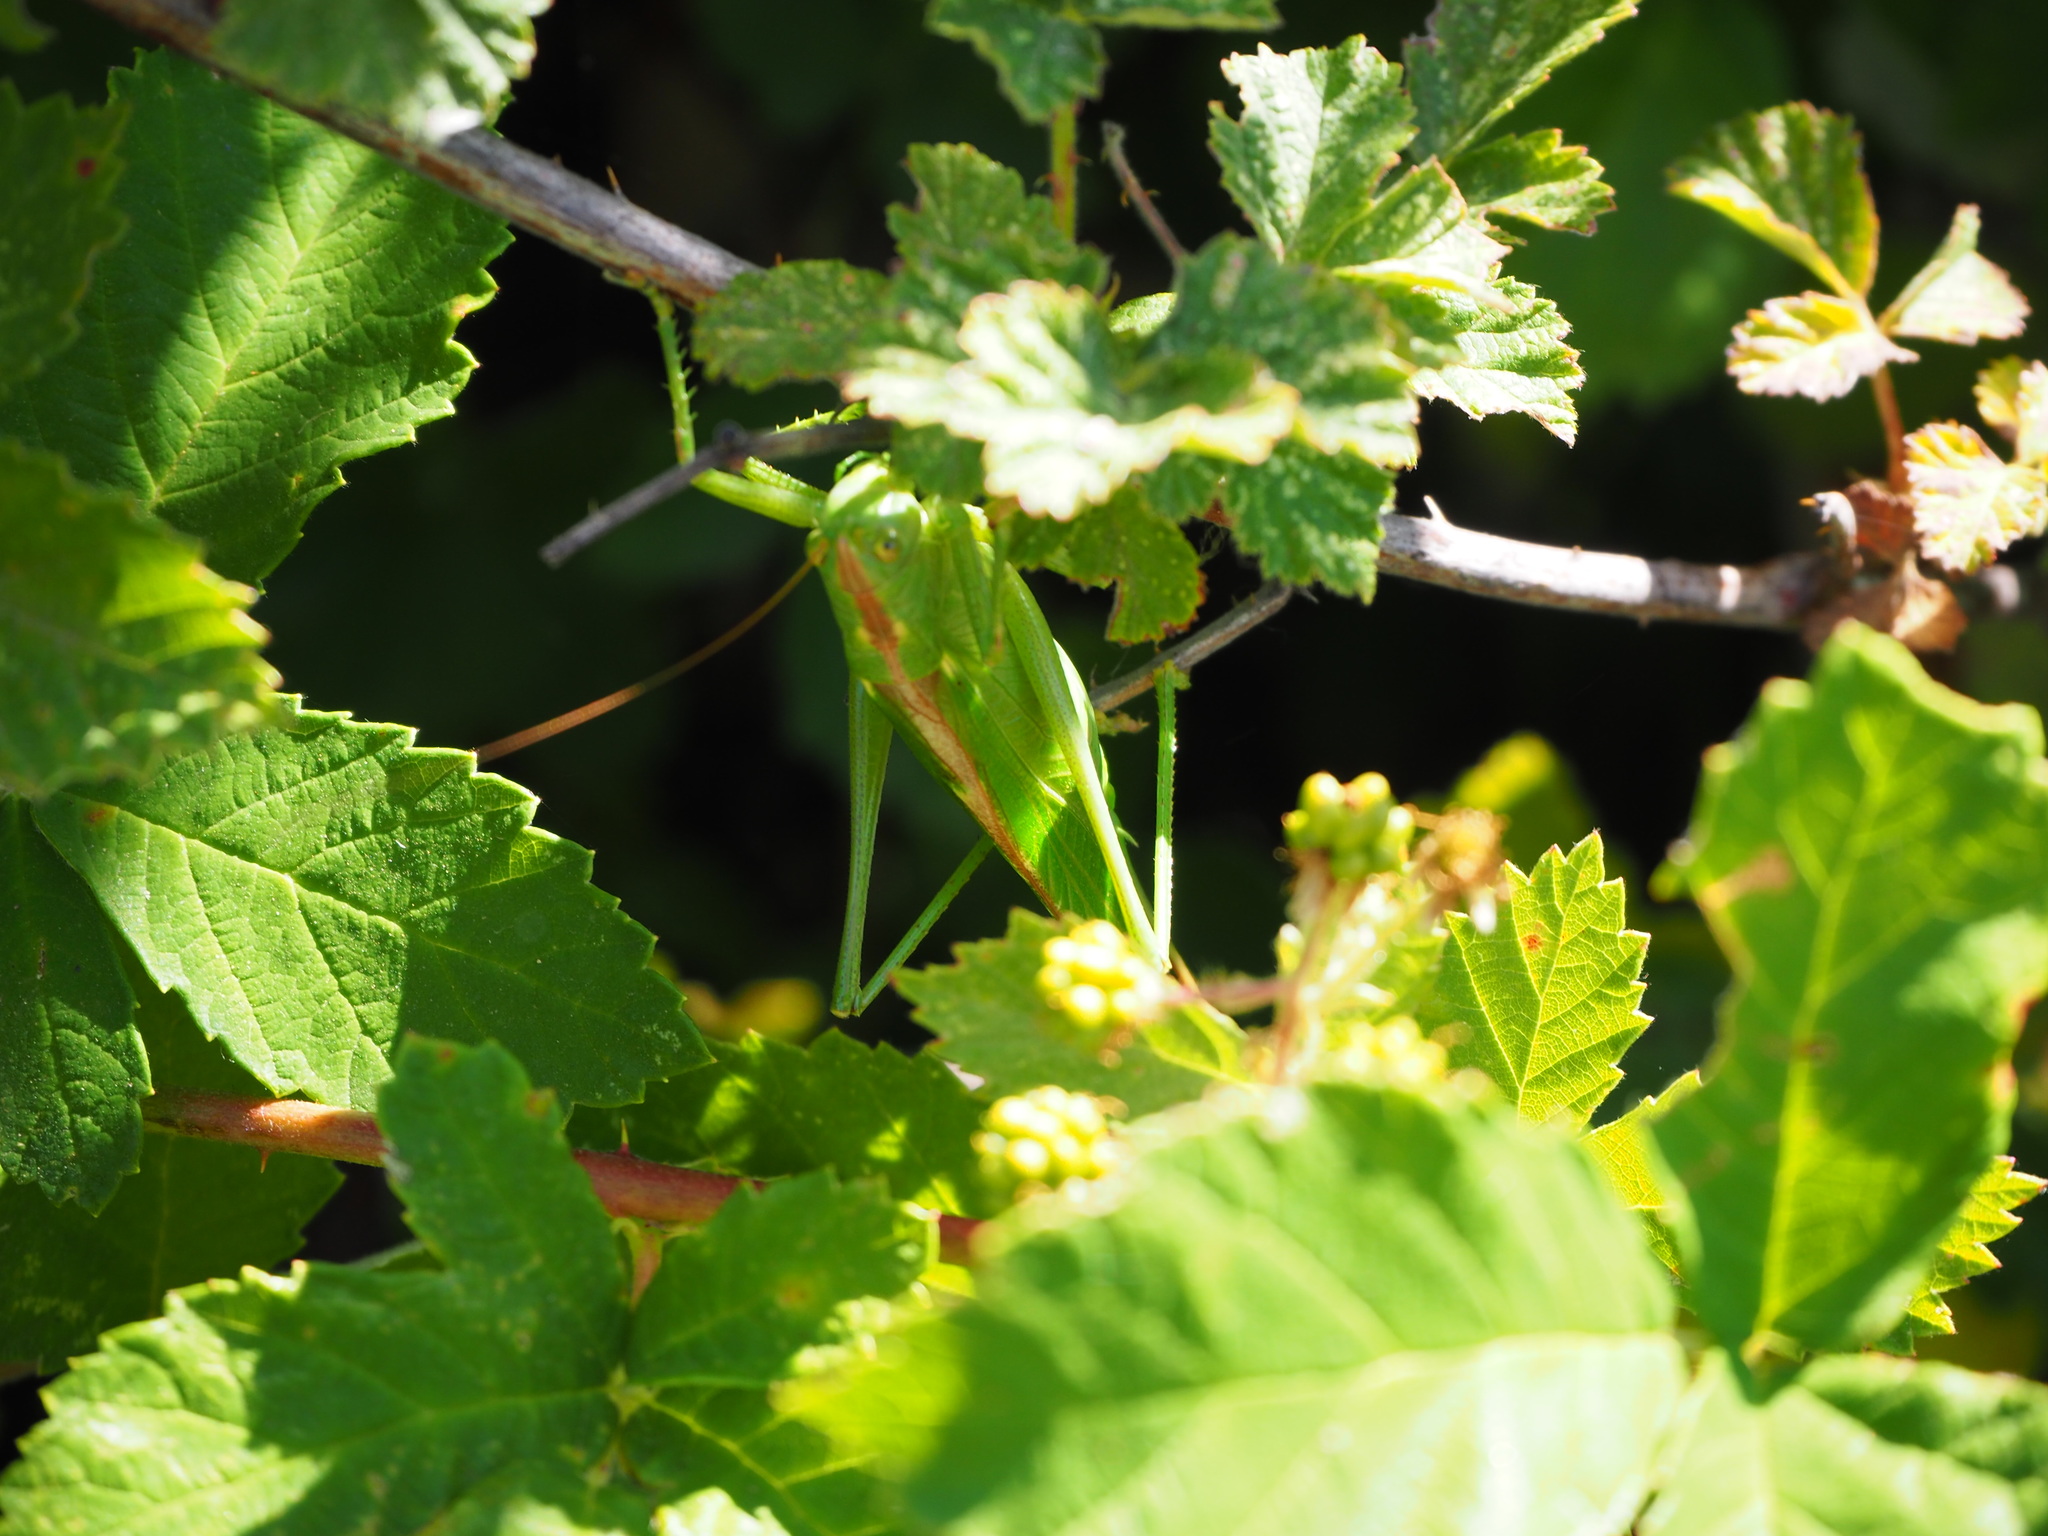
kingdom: Animalia
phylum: Arthropoda
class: Insecta
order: Orthoptera
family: Tettigoniidae
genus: Tettigonia
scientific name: Tettigonia viridissima
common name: Great green bush-cricket
